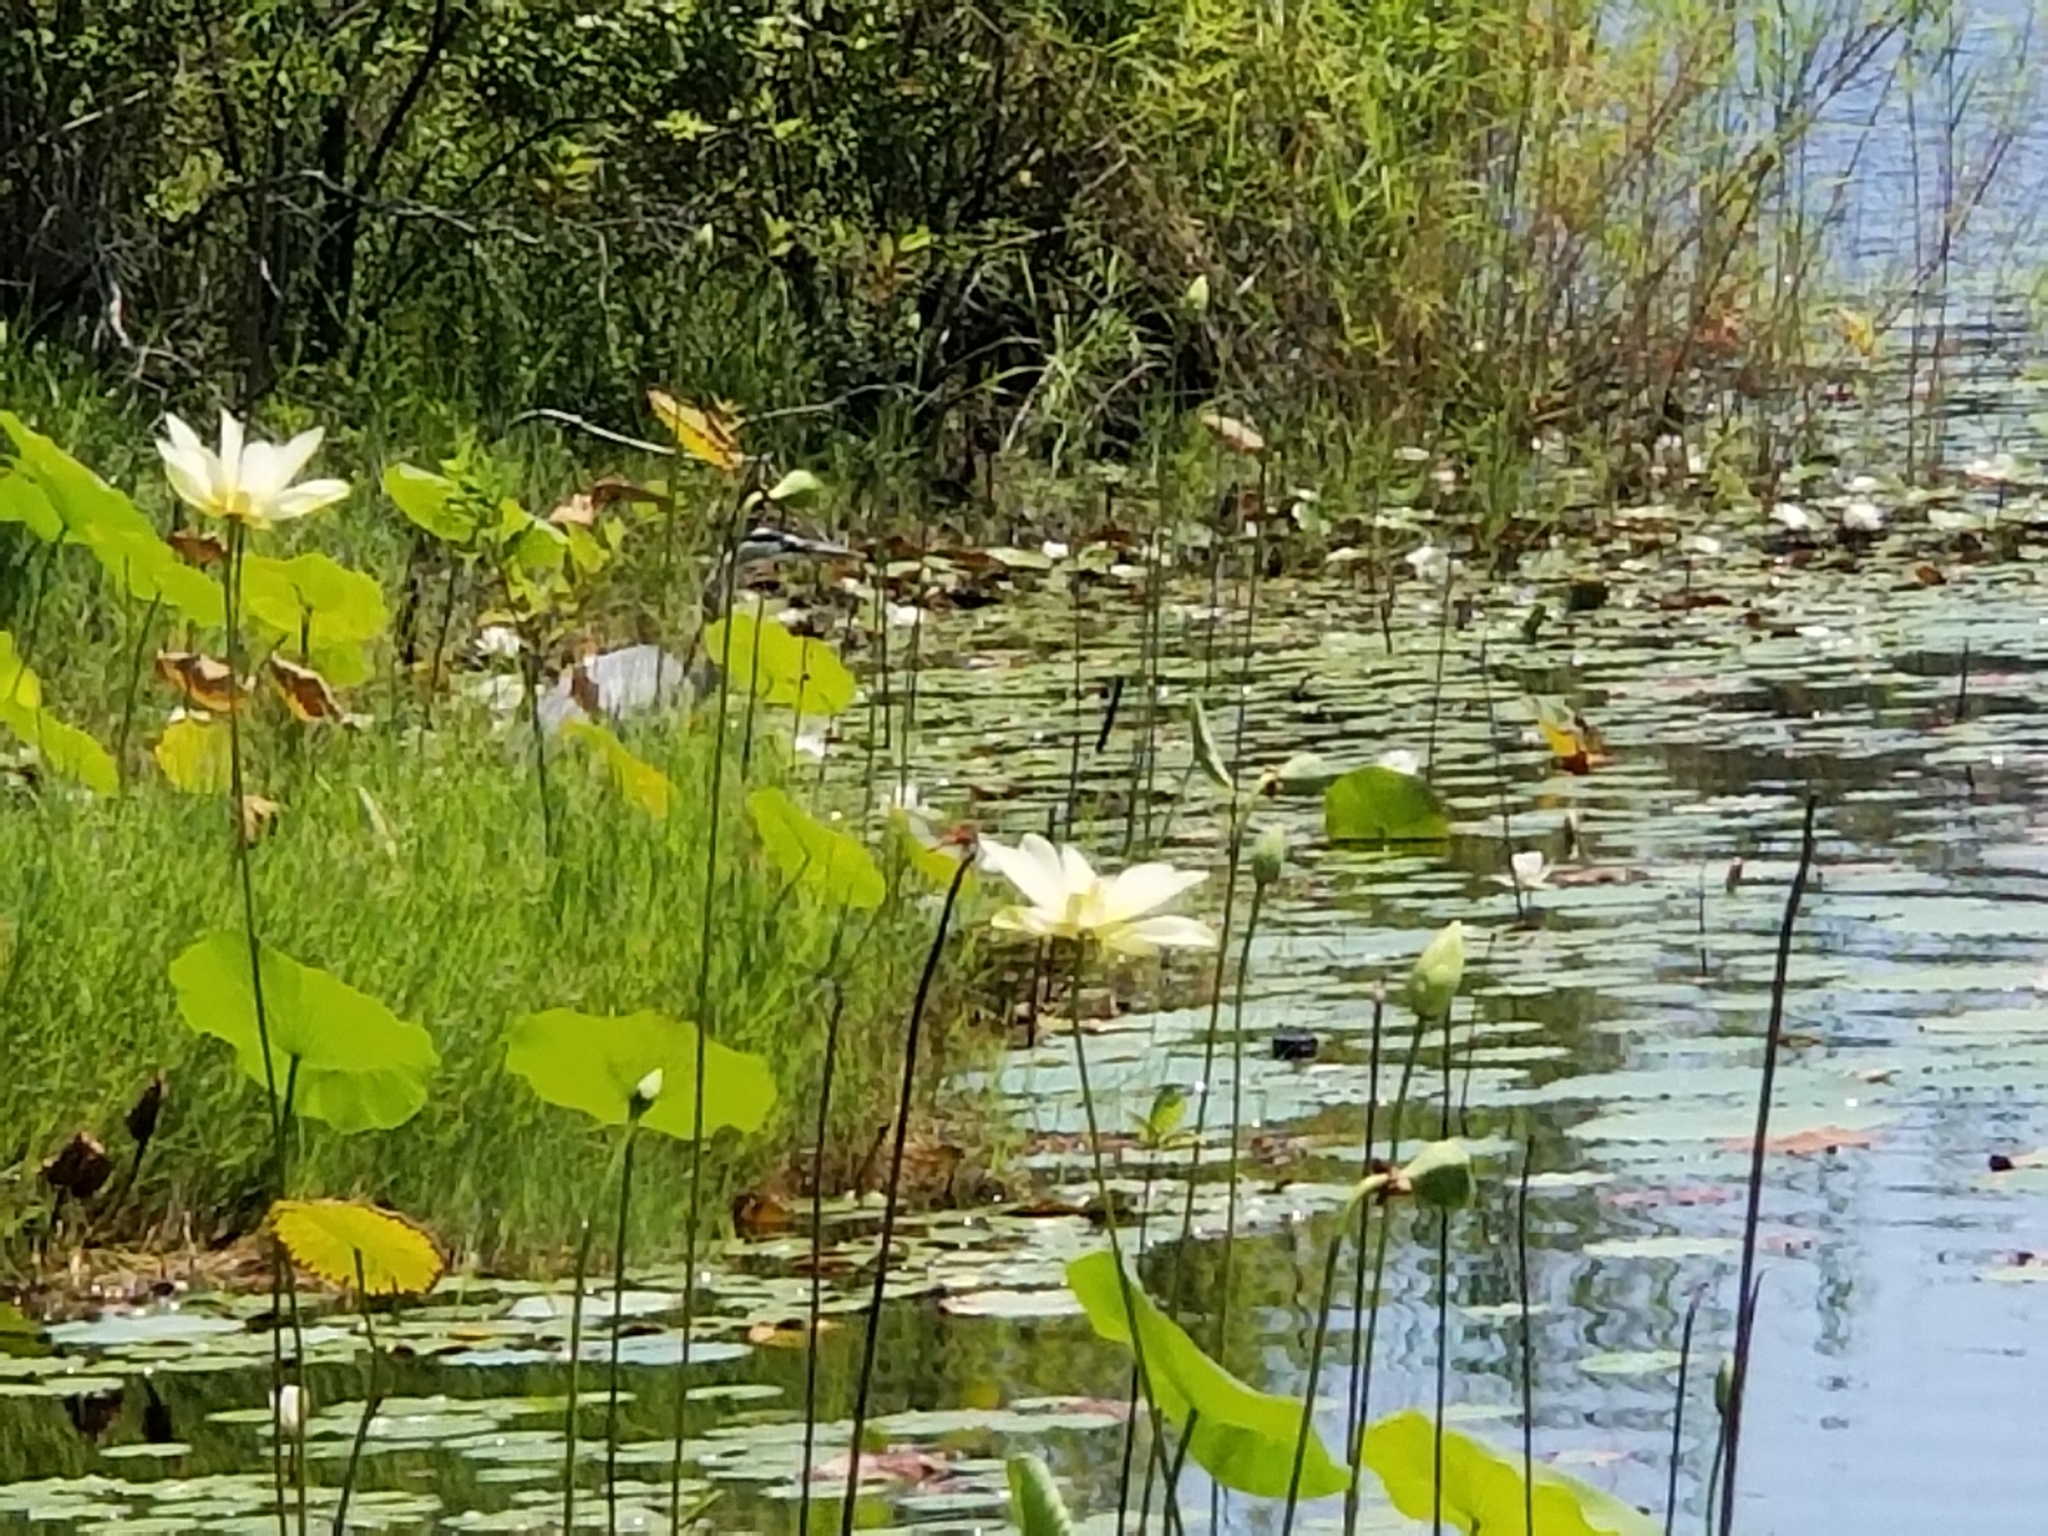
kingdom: Animalia
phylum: Chordata
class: Aves
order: Pelecaniformes
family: Ardeidae
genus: Ardea
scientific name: Ardea herodias
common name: Great blue heron
